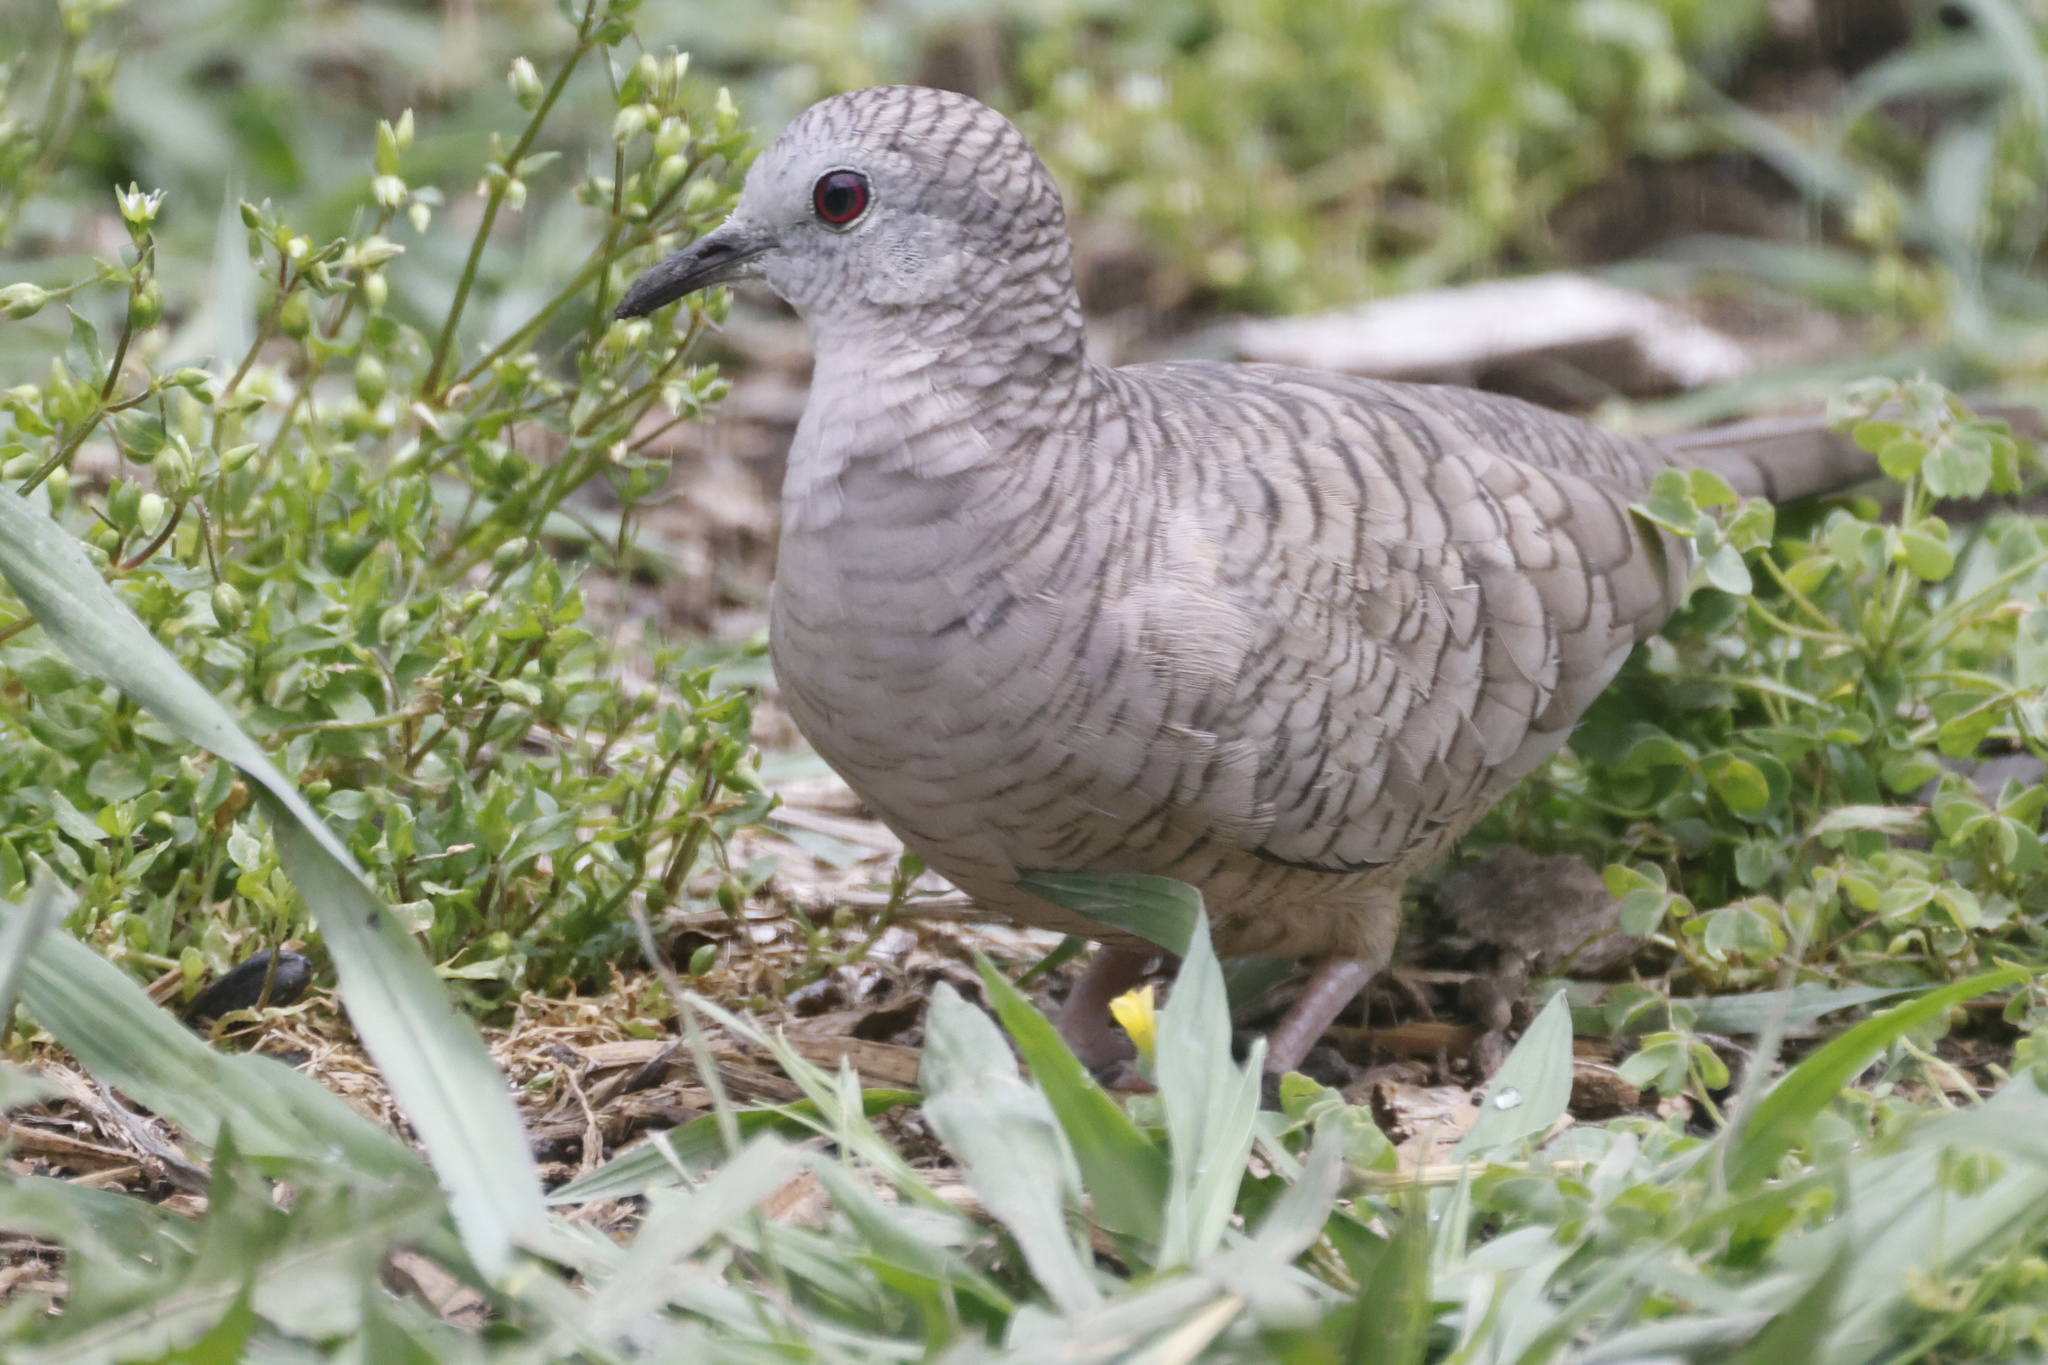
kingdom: Animalia
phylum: Chordata
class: Aves
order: Columbiformes
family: Columbidae
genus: Columbina
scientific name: Columbina inca
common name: Inca dove
